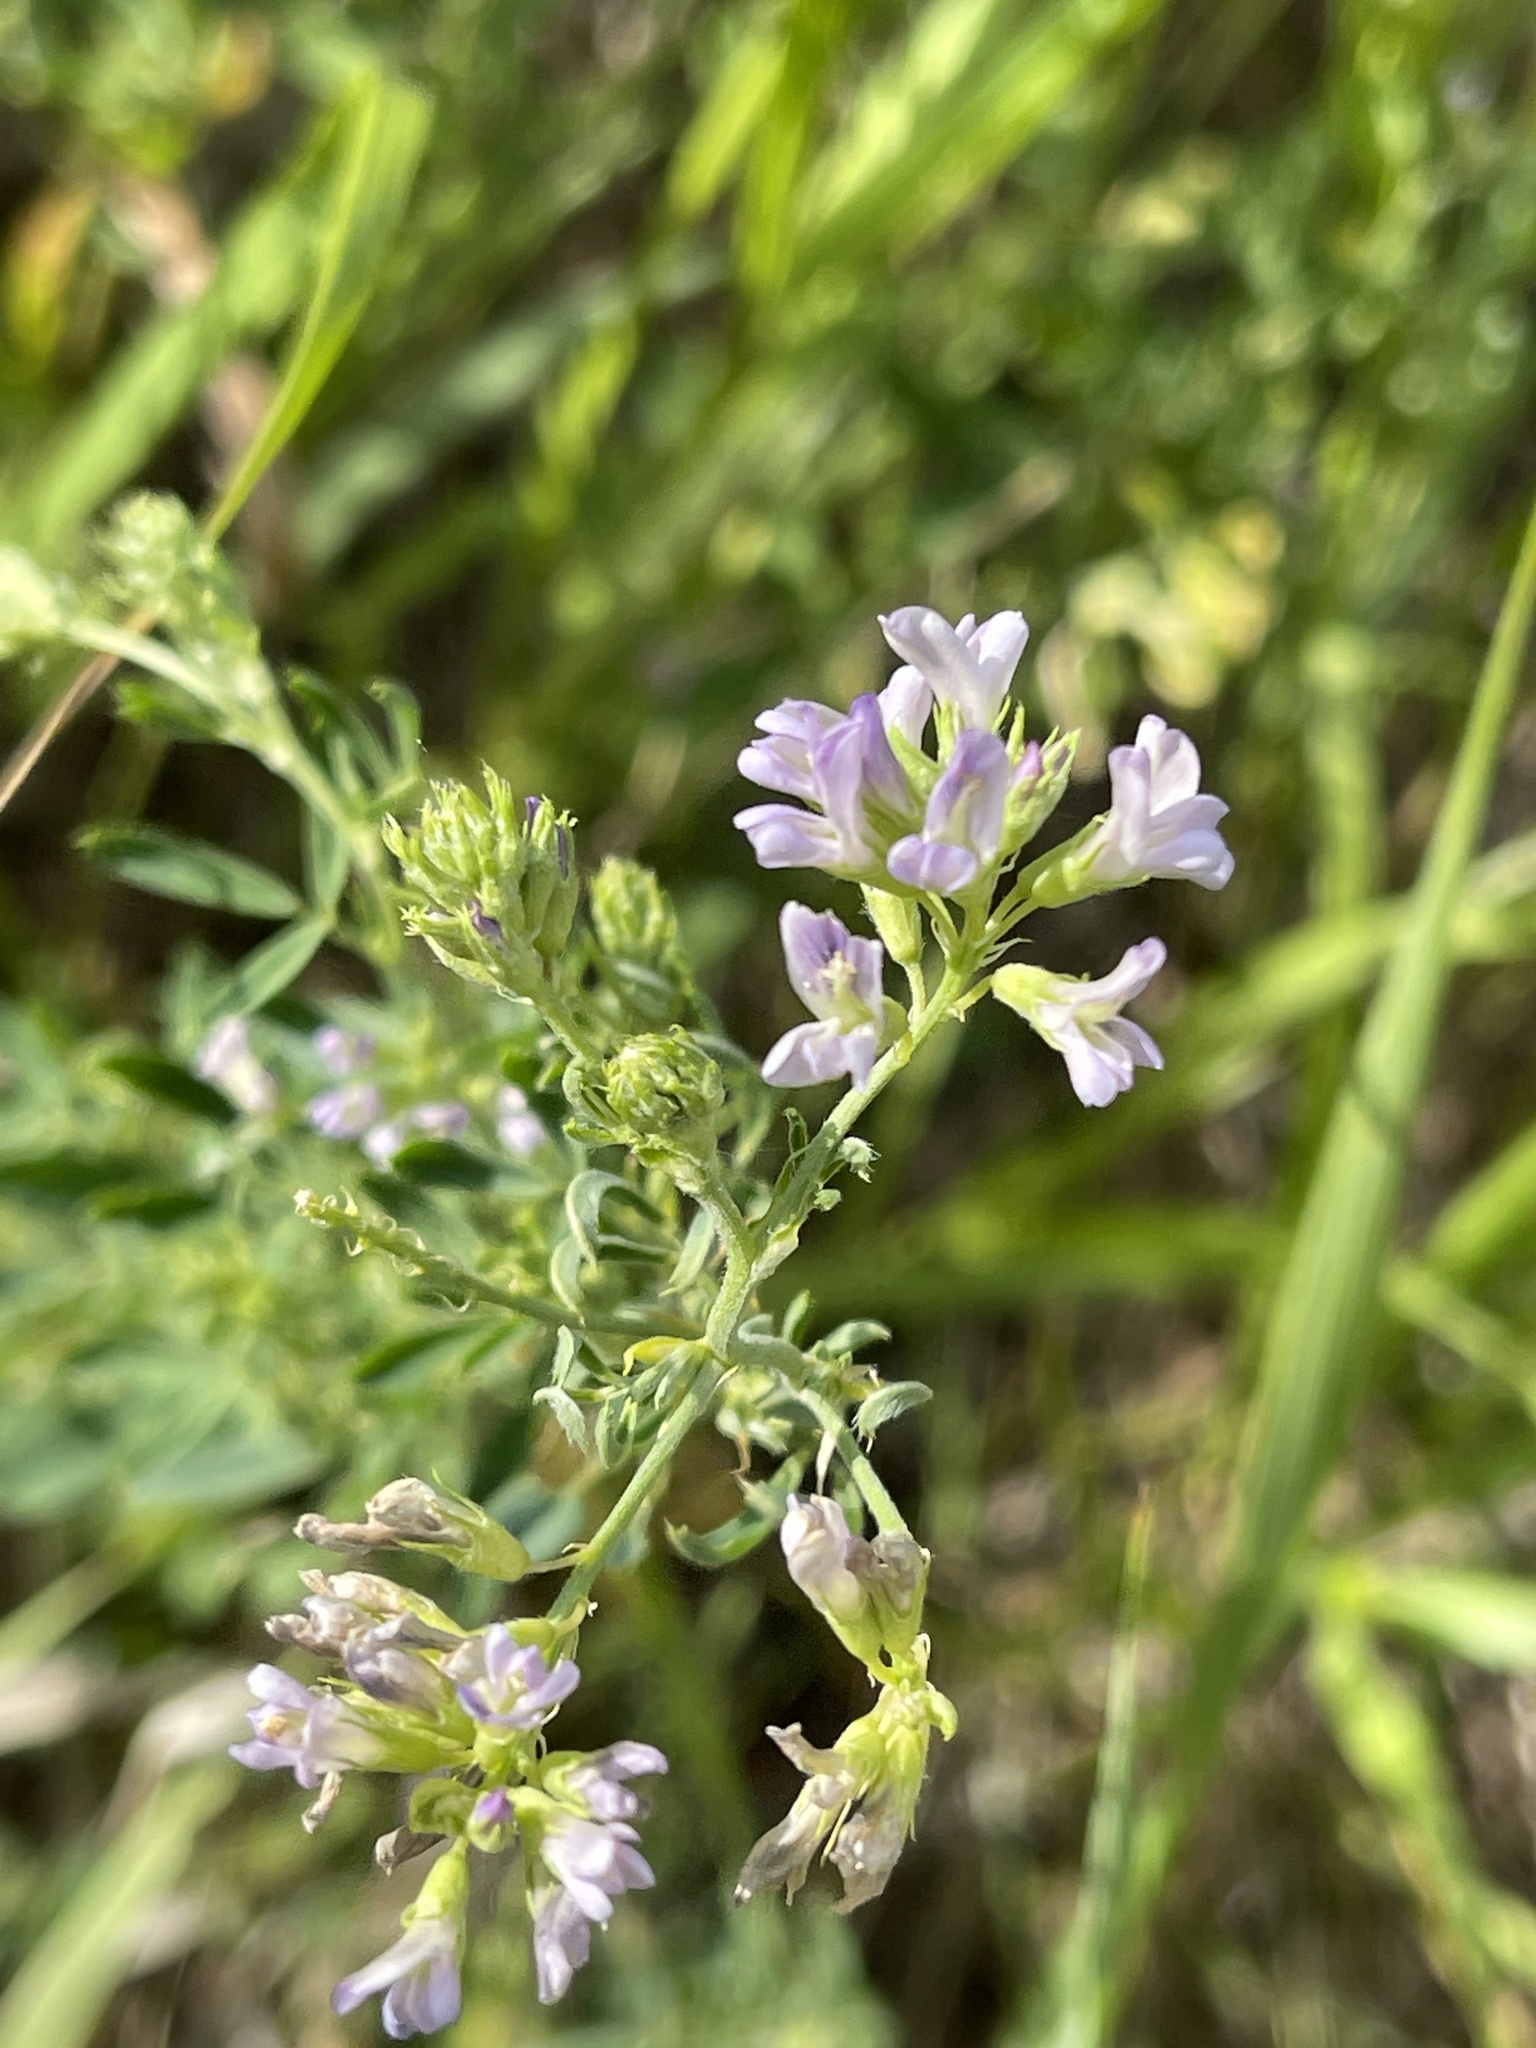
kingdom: Plantae
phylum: Tracheophyta
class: Magnoliopsida
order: Fabales
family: Fabaceae
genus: Medicago
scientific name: Medicago sativa
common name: Alfalfa
